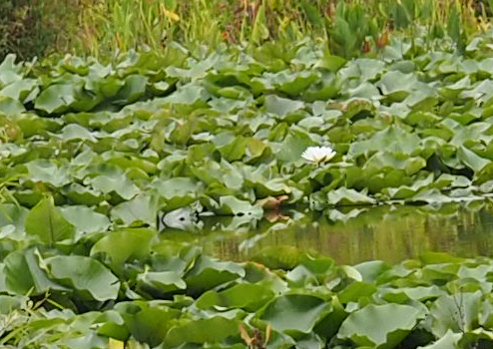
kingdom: Plantae
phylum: Tracheophyta
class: Magnoliopsida
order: Nymphaeales
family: Nymphaeaceae
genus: Nymphaea
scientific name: Nymphaea odorata
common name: Fragrant water-lily
